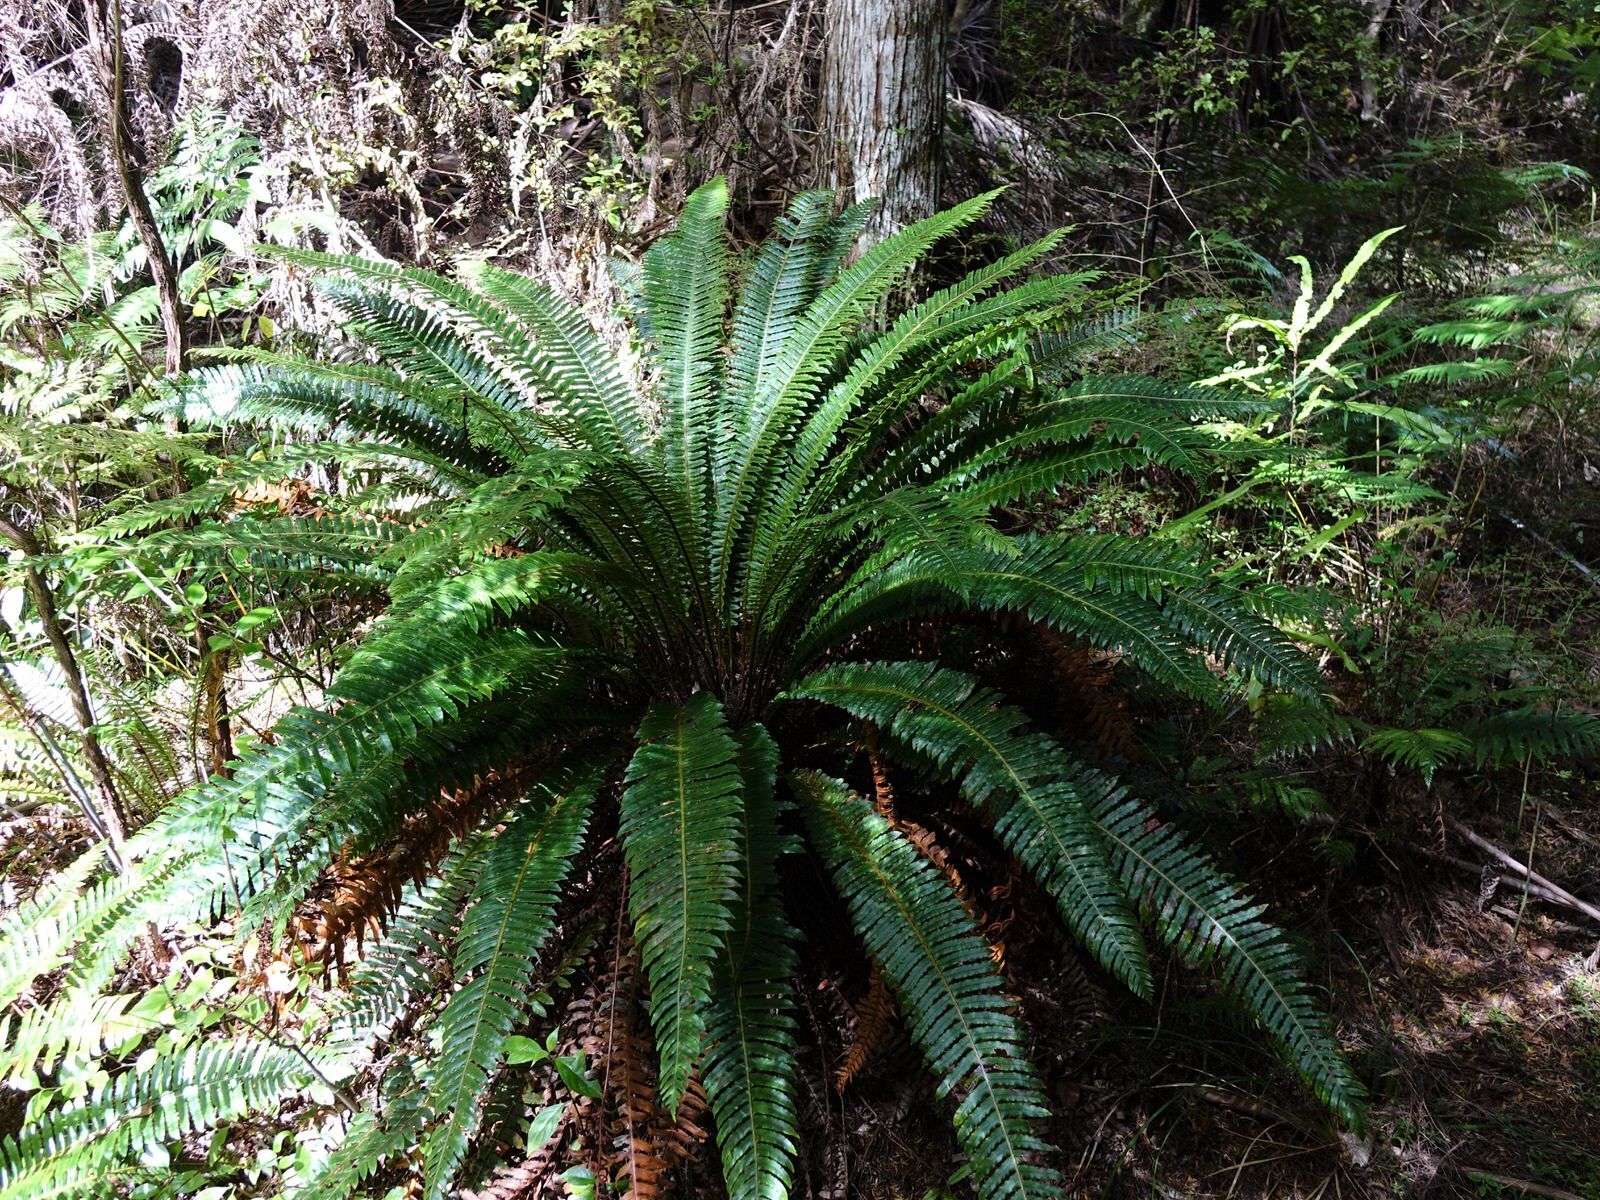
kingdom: Plantae
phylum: Tracheophyta
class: Polypodiopsida
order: Polypodiales
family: Blechnaceae
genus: Lomaria
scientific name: Lomaria discolor
